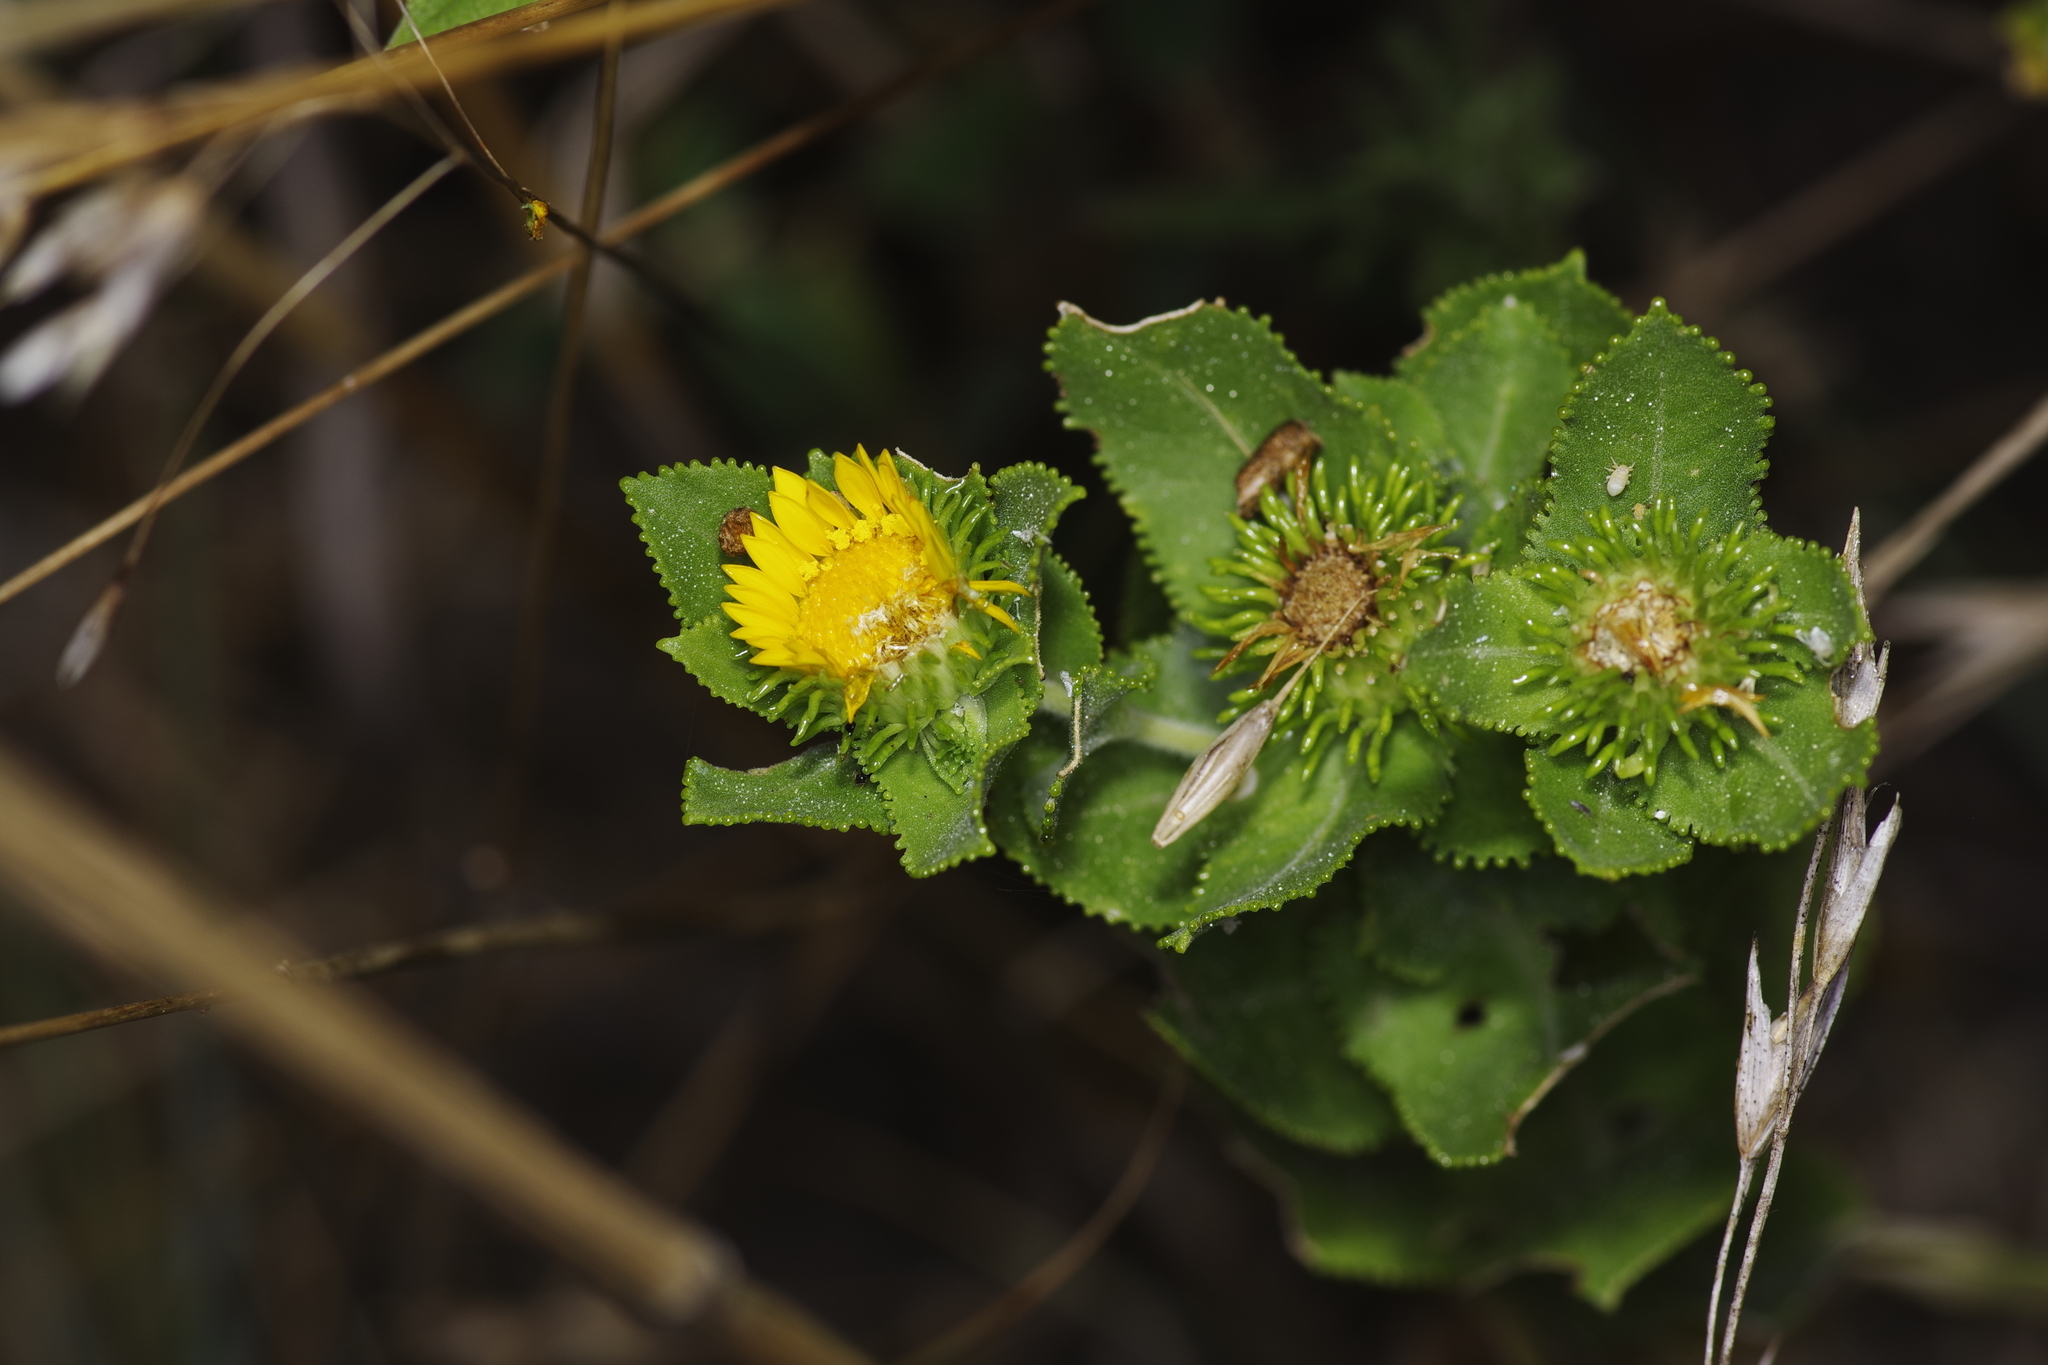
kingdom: Plantae
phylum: Tracheophyta
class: Magnoliopsida
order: Asterales
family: Asteraceae
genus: Grindelia
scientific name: Grindelia adenodonta
